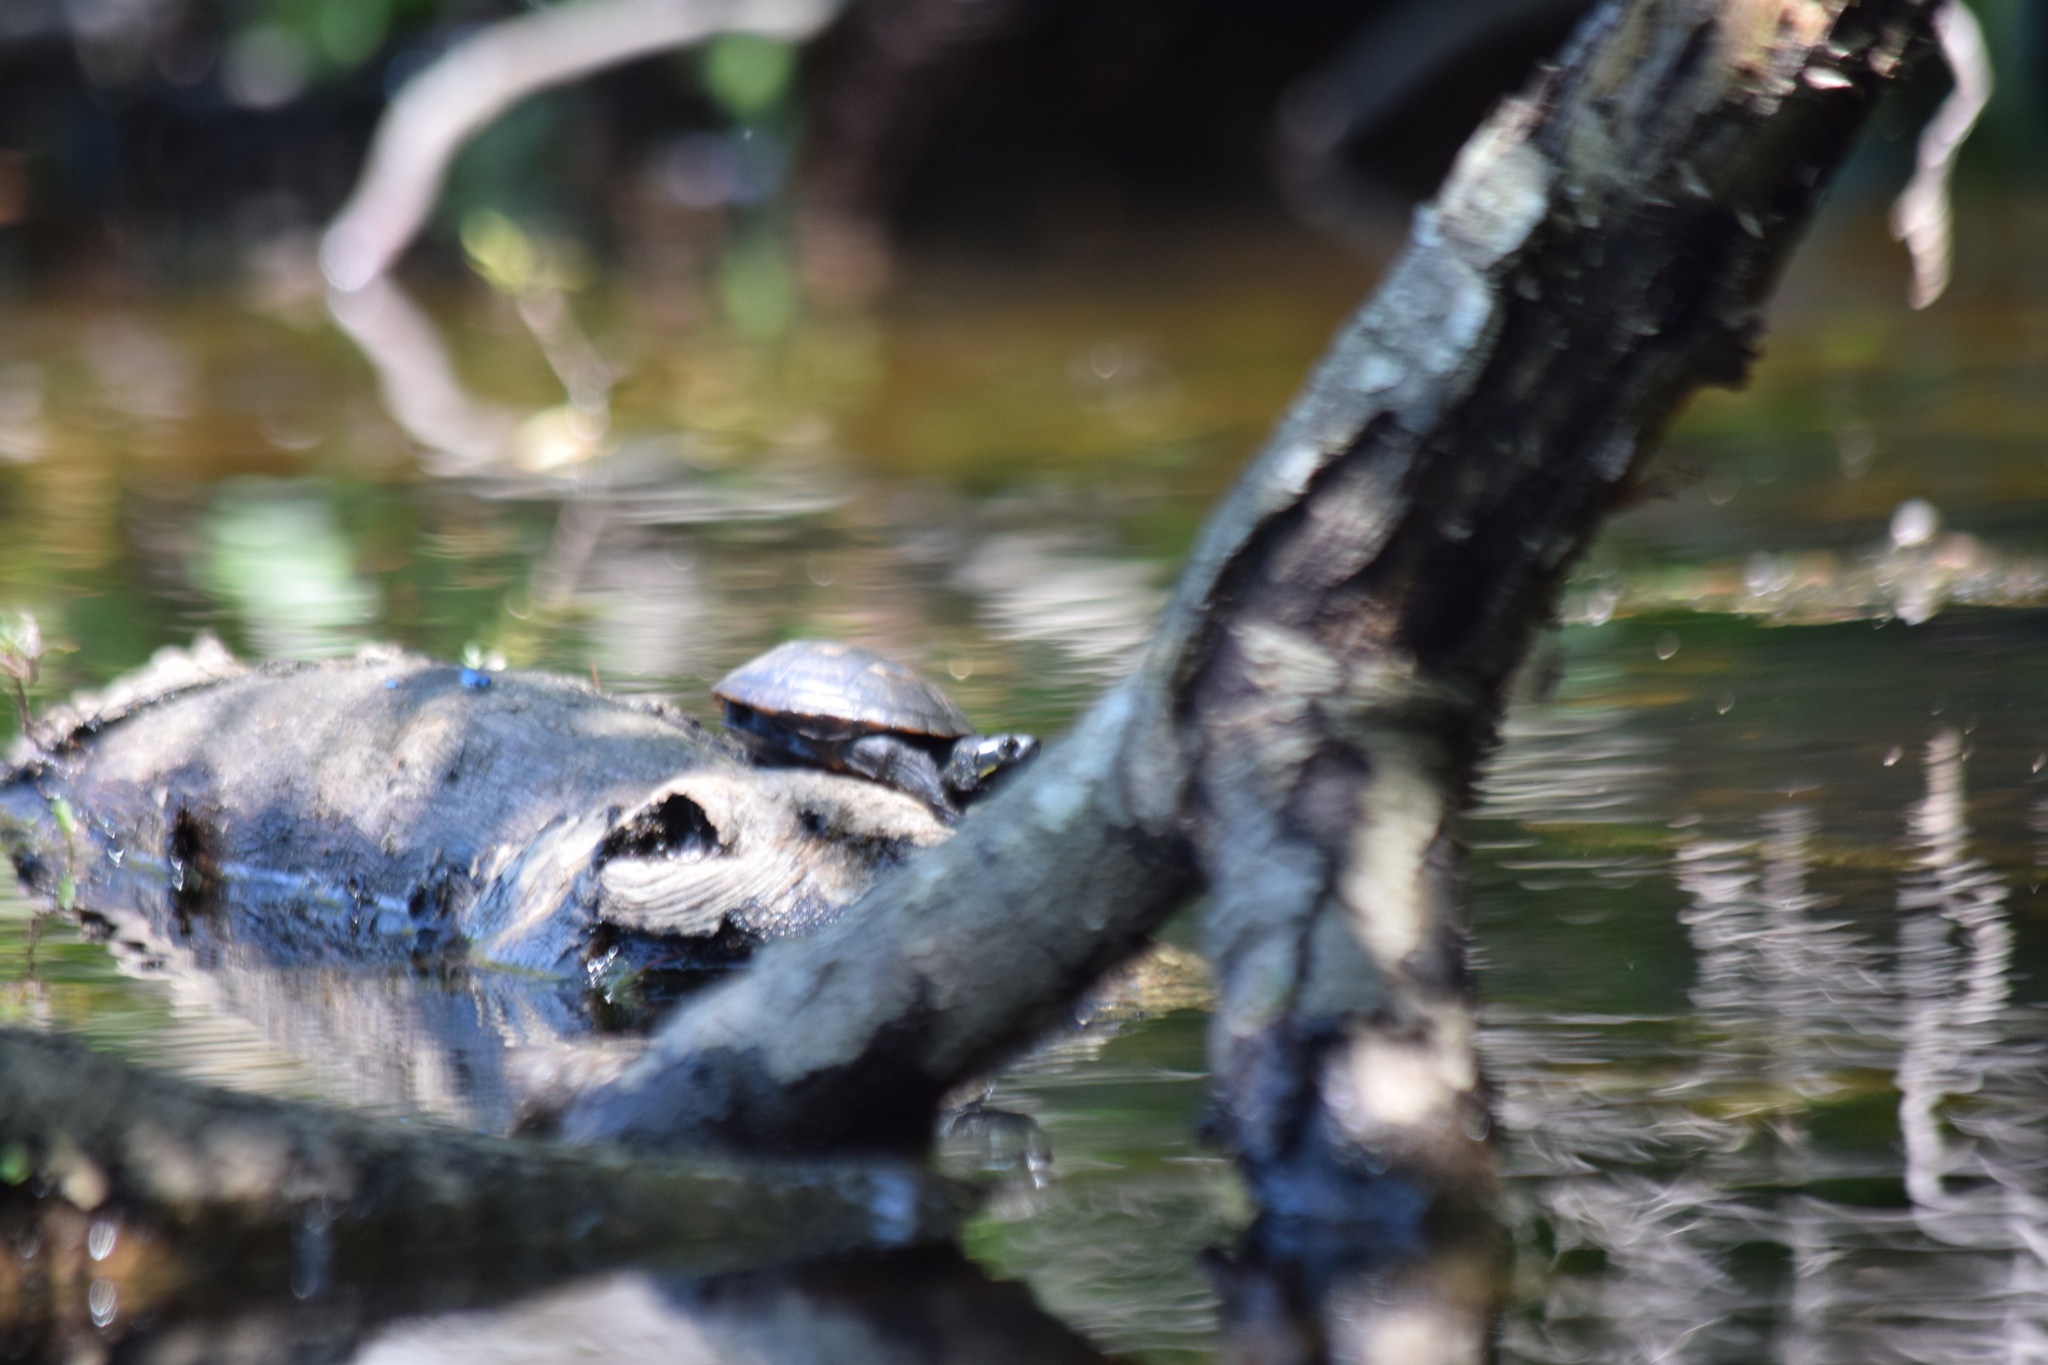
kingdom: Animalia
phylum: Chordata
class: Testudines
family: Kinosternidae
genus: Kinosternon
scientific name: Kinosternon baurii
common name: Striped mud turtle
